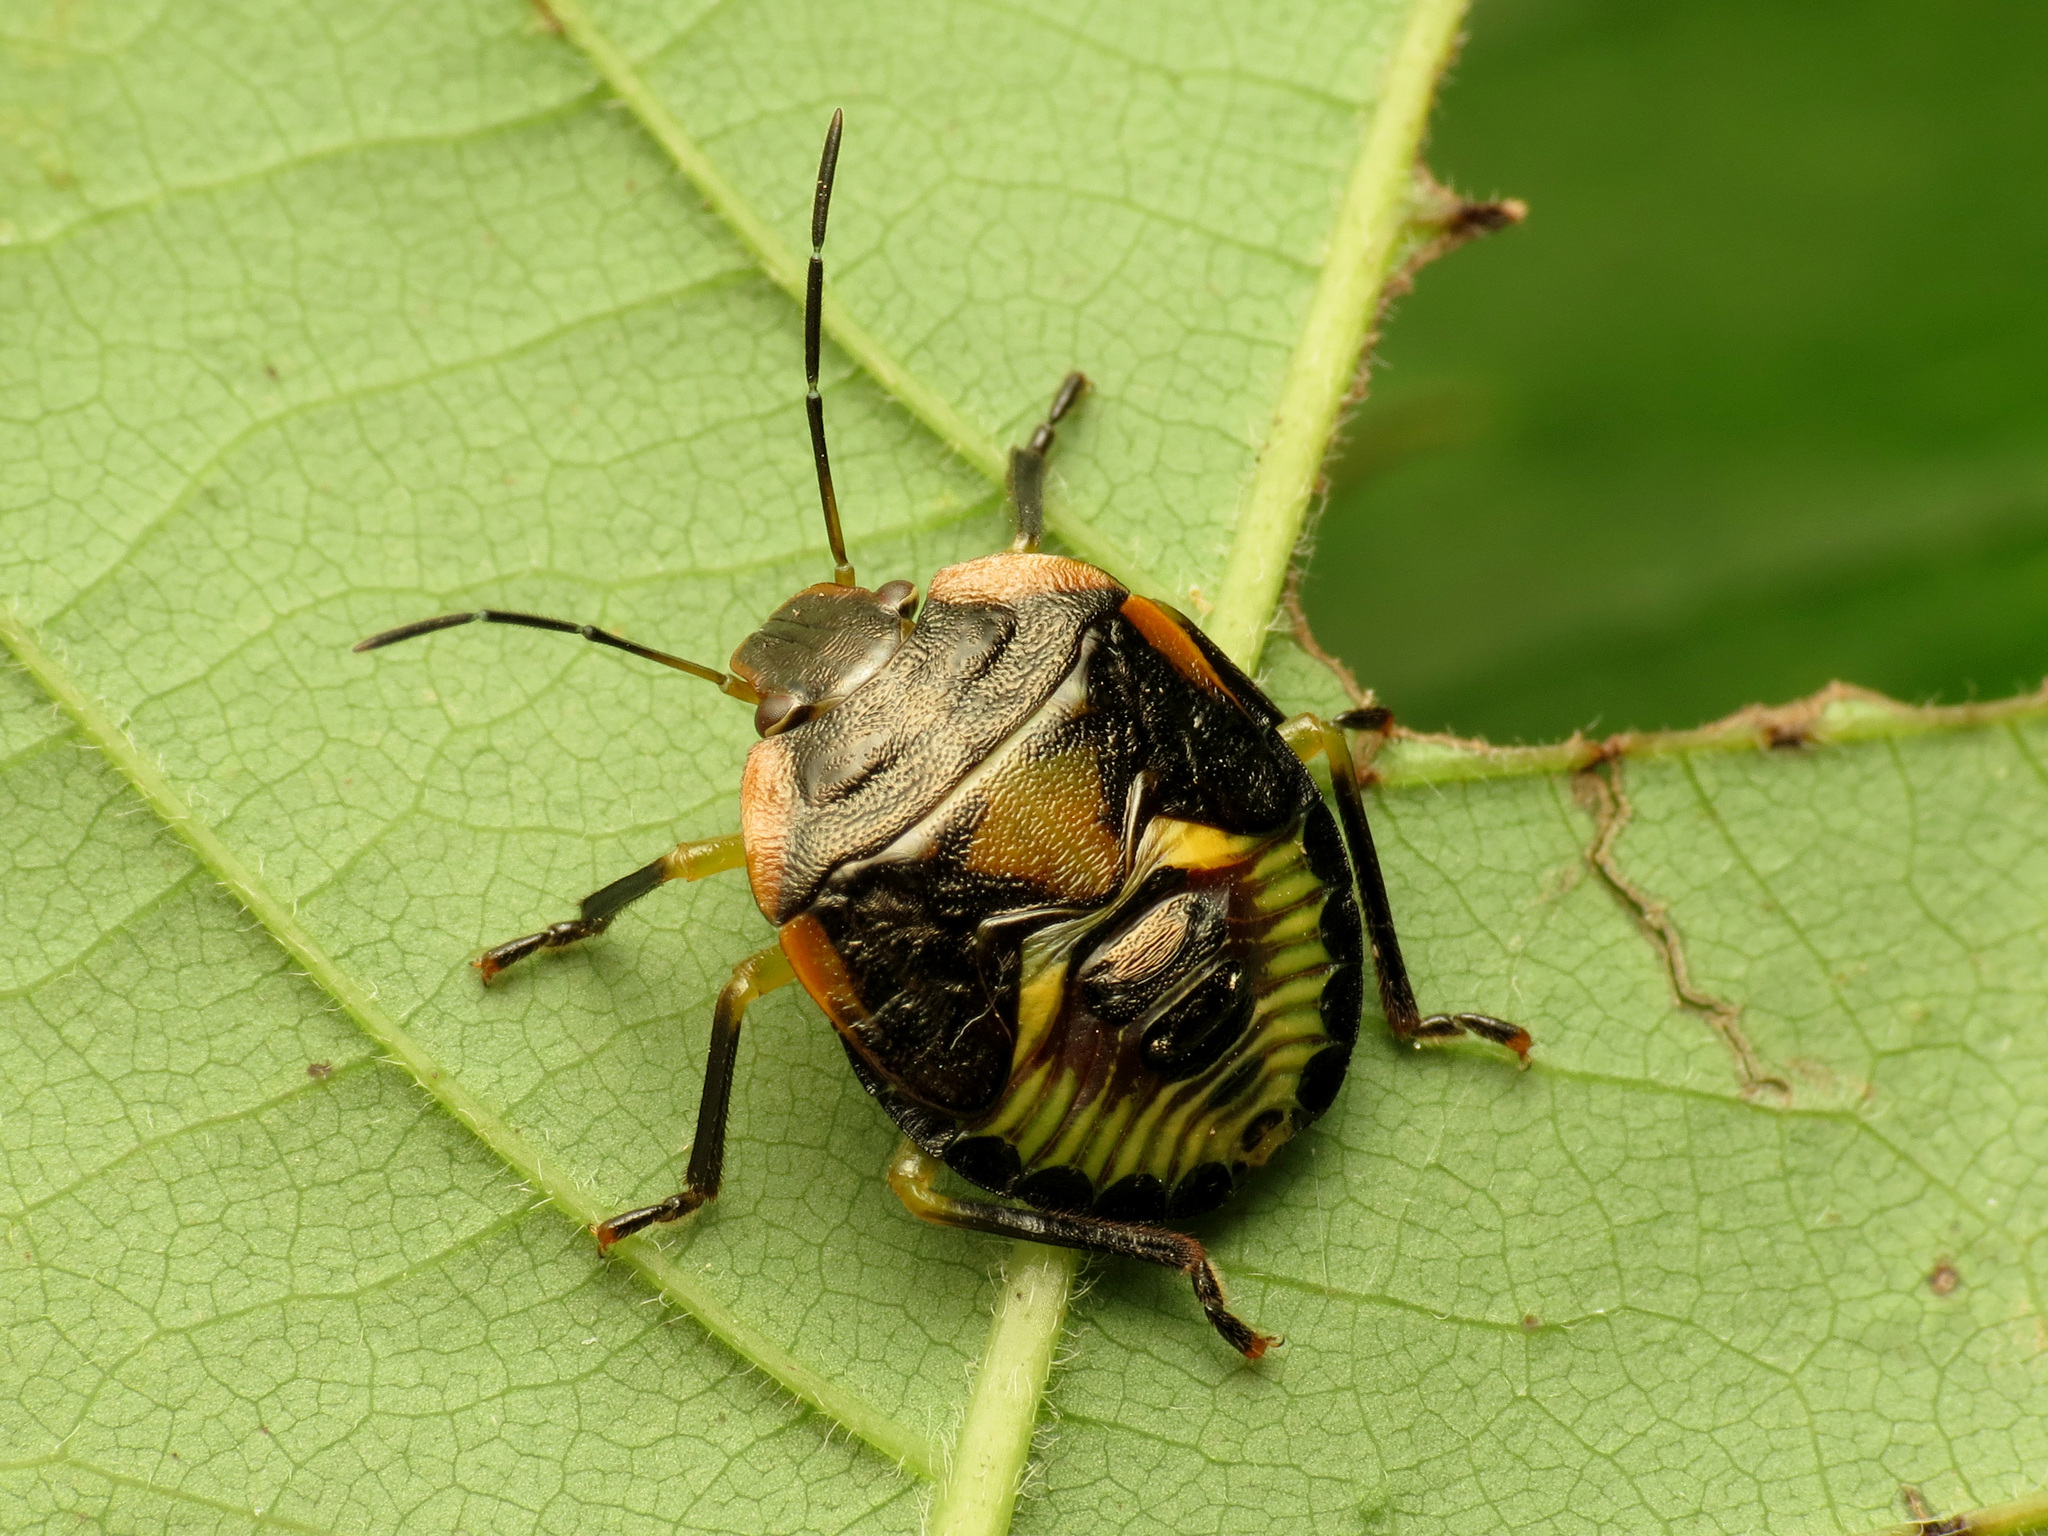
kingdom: Animalia
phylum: Arthropoda
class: Insecta
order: Hemiptera
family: Pentatomidae
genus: Chinavia
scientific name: Chinavia hilaris
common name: Green stink bug
